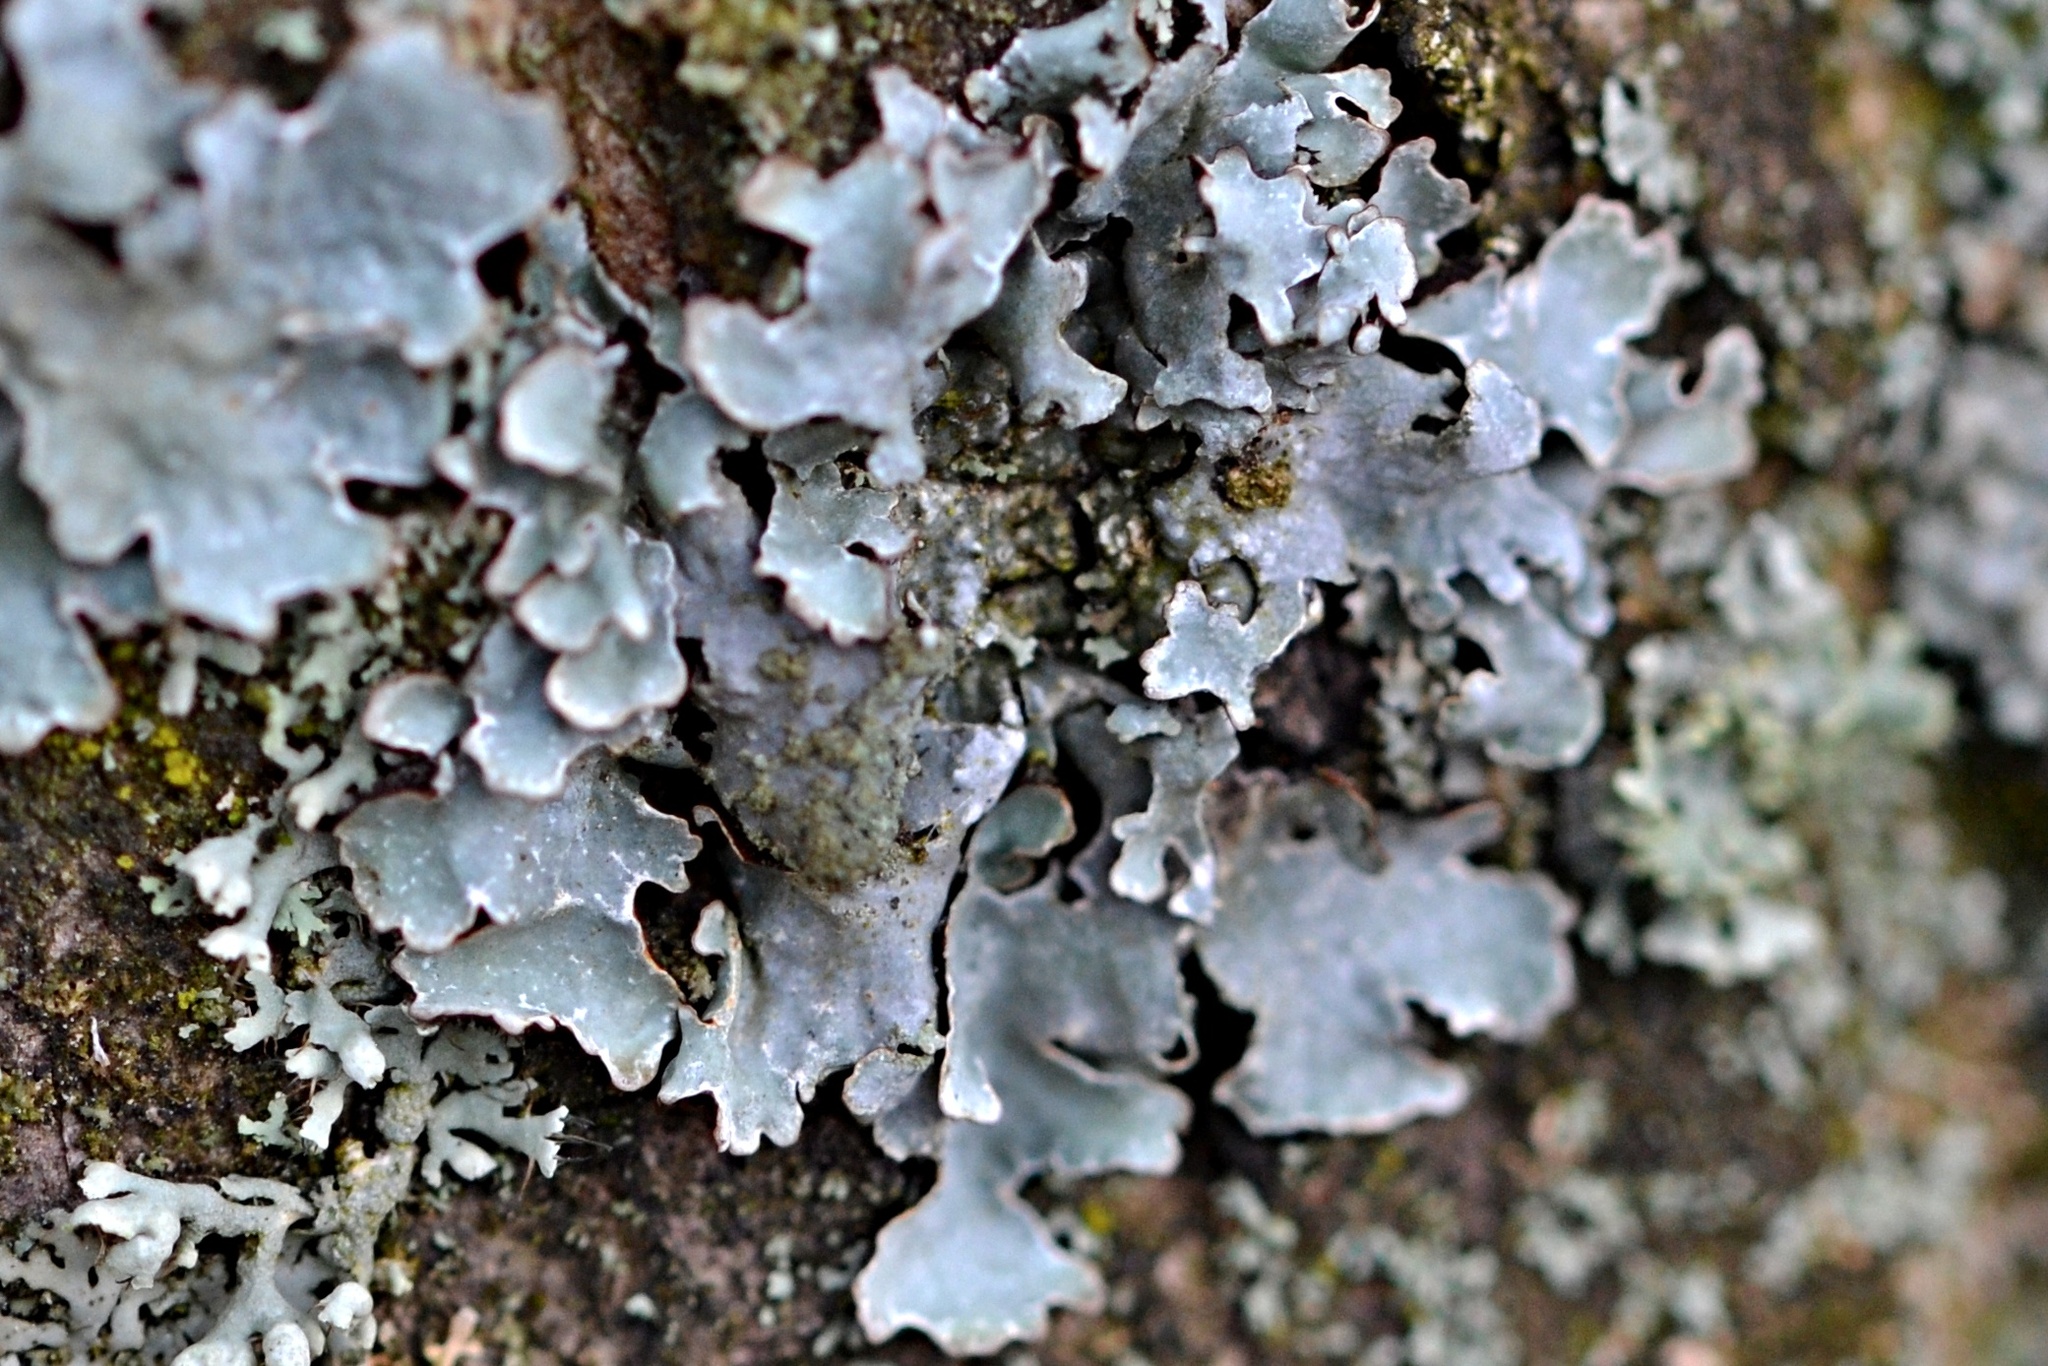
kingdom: Fungi
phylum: Ascomycota
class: Lecanoromycetes
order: Lecanorales
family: Parmeliaceae
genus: Parmelia
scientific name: Parmelia sulcata
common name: Netted shield lichen
